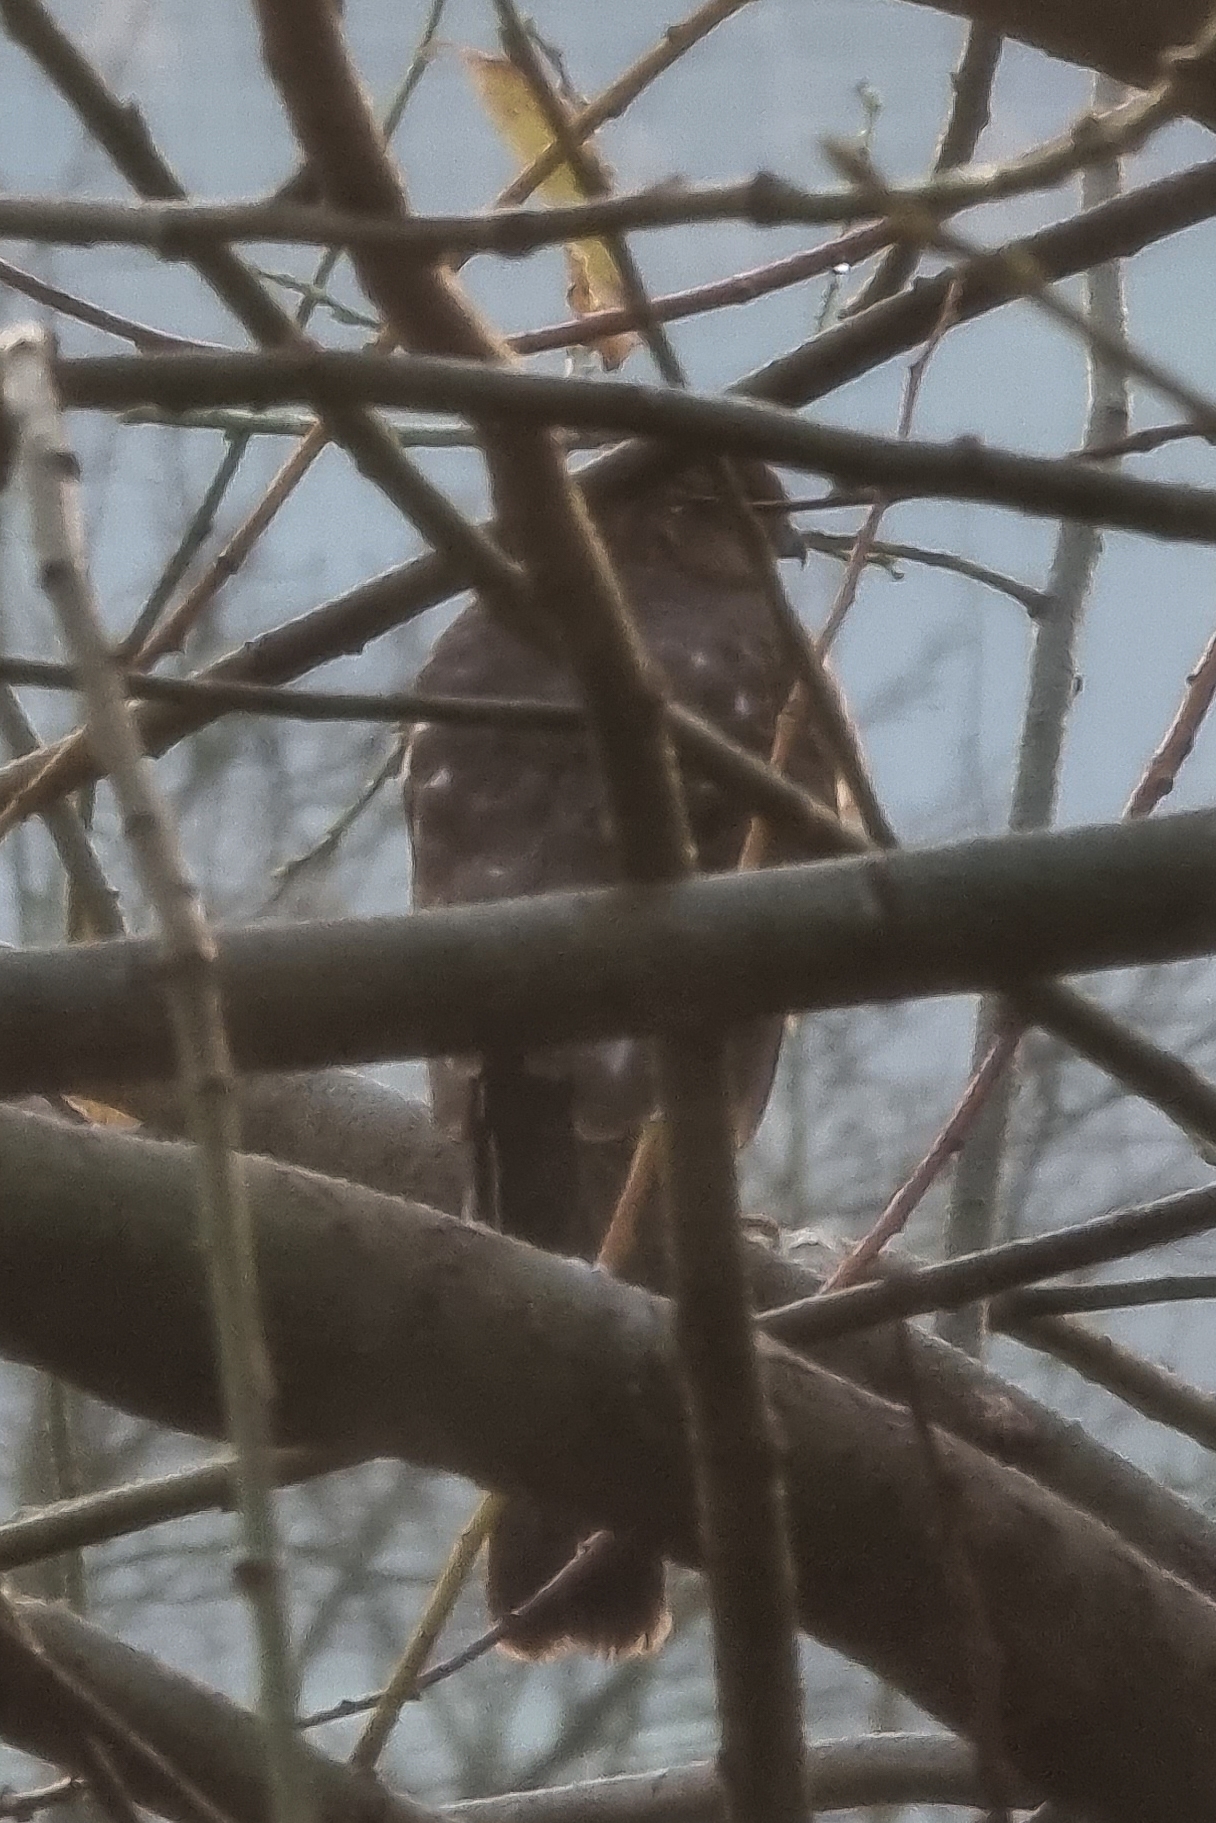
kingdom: Animalia
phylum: Chordata
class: Aves
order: Accipitriformes
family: Accipitridae
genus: Accipiter
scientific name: Accipiter nisus
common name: Eurasian sparrowhawk
